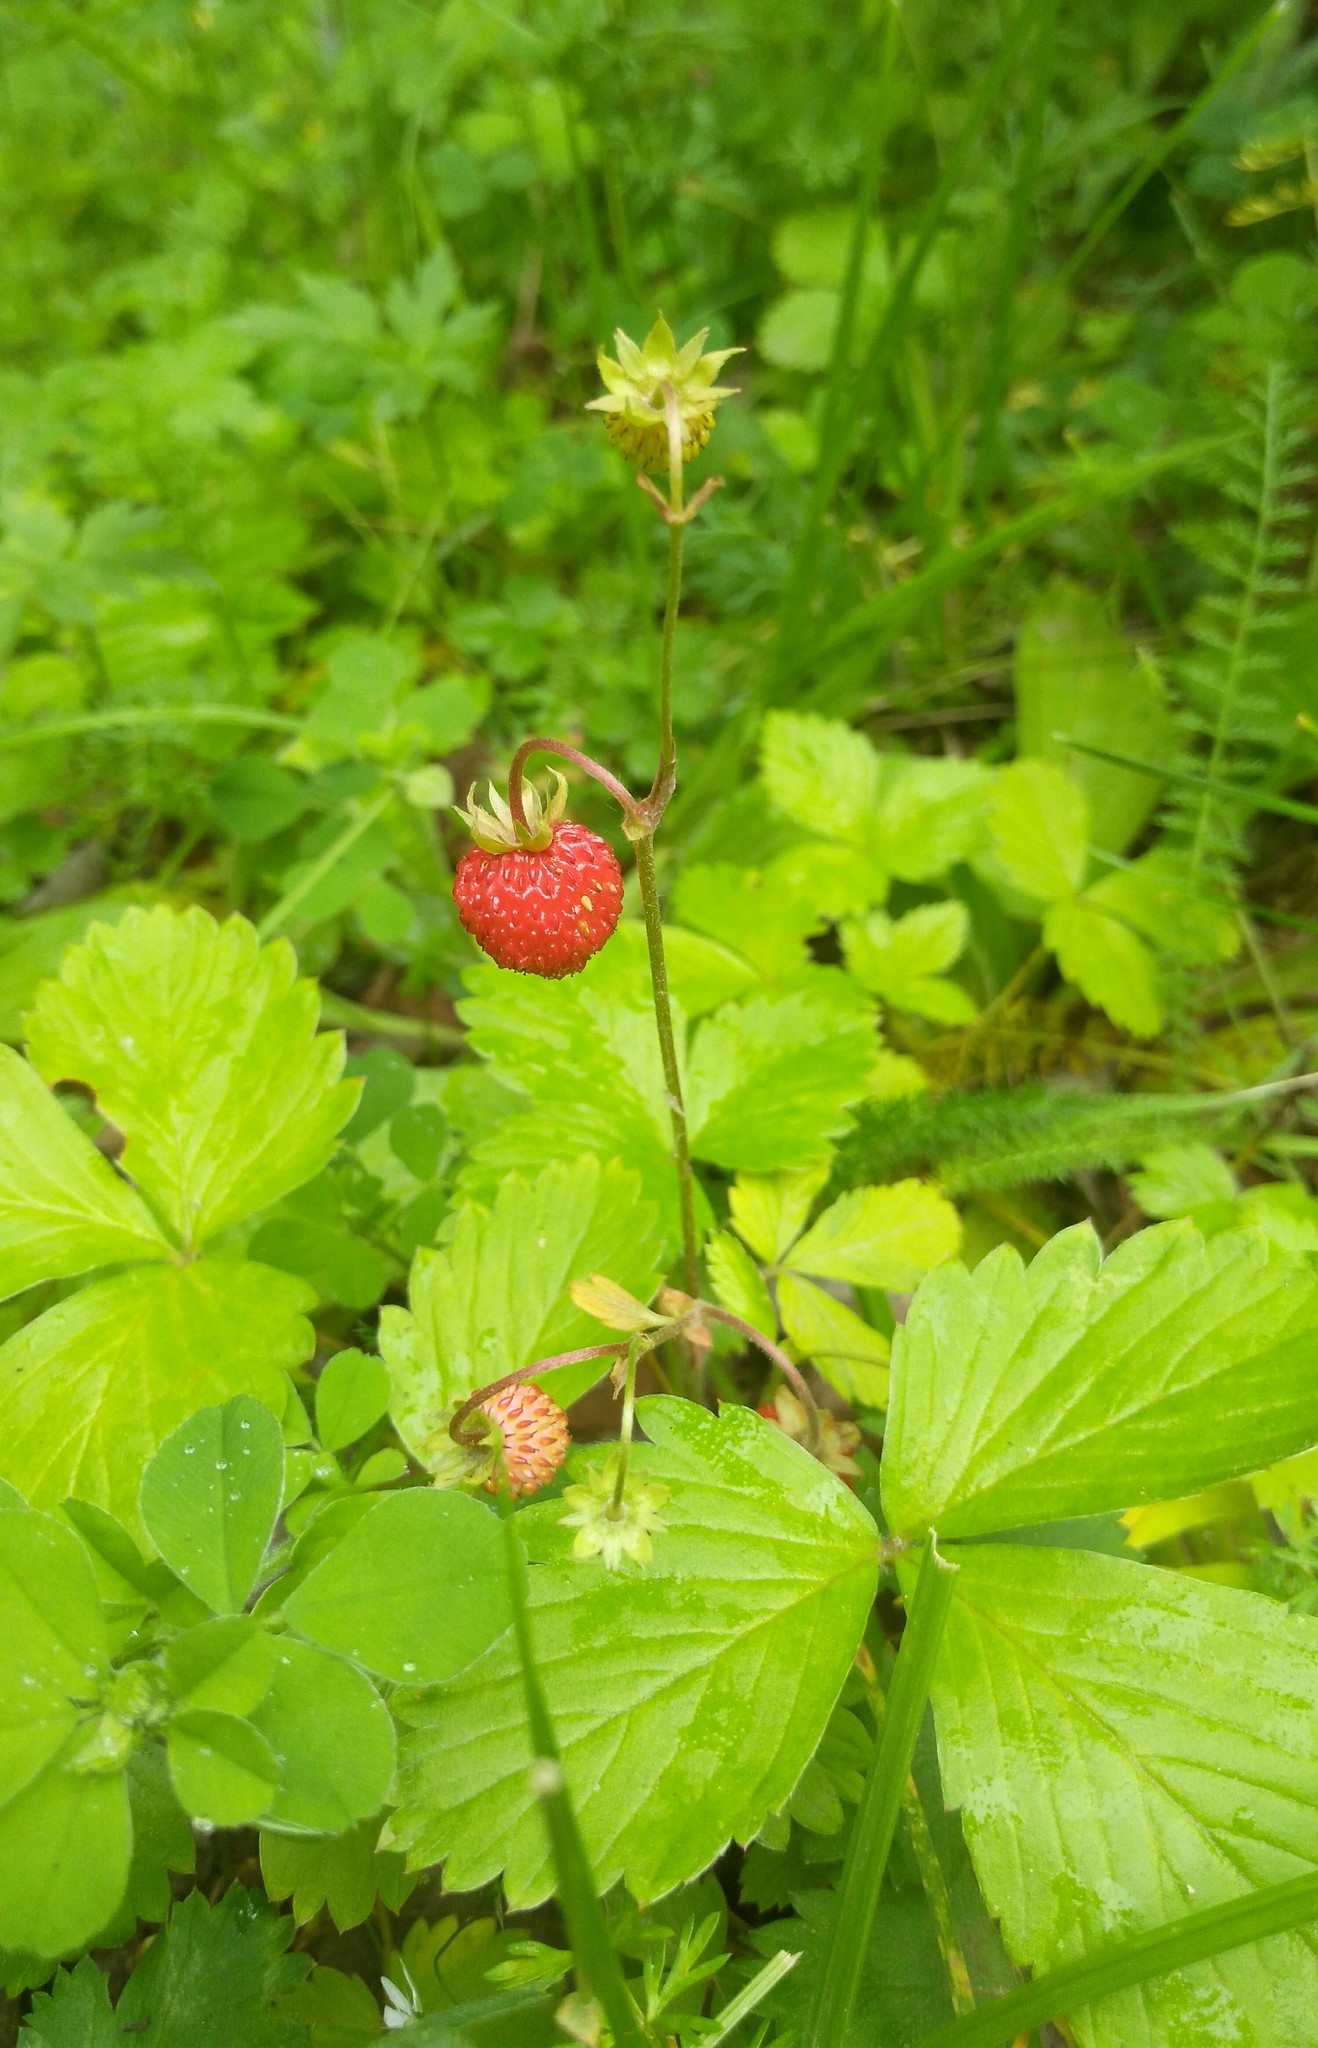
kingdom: Plantae
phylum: Tracheophyta
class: Magnoliopsida
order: Rosales
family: Rosaceae
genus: Fragaria
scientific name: Fragaria vesca
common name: Wild strawberry
